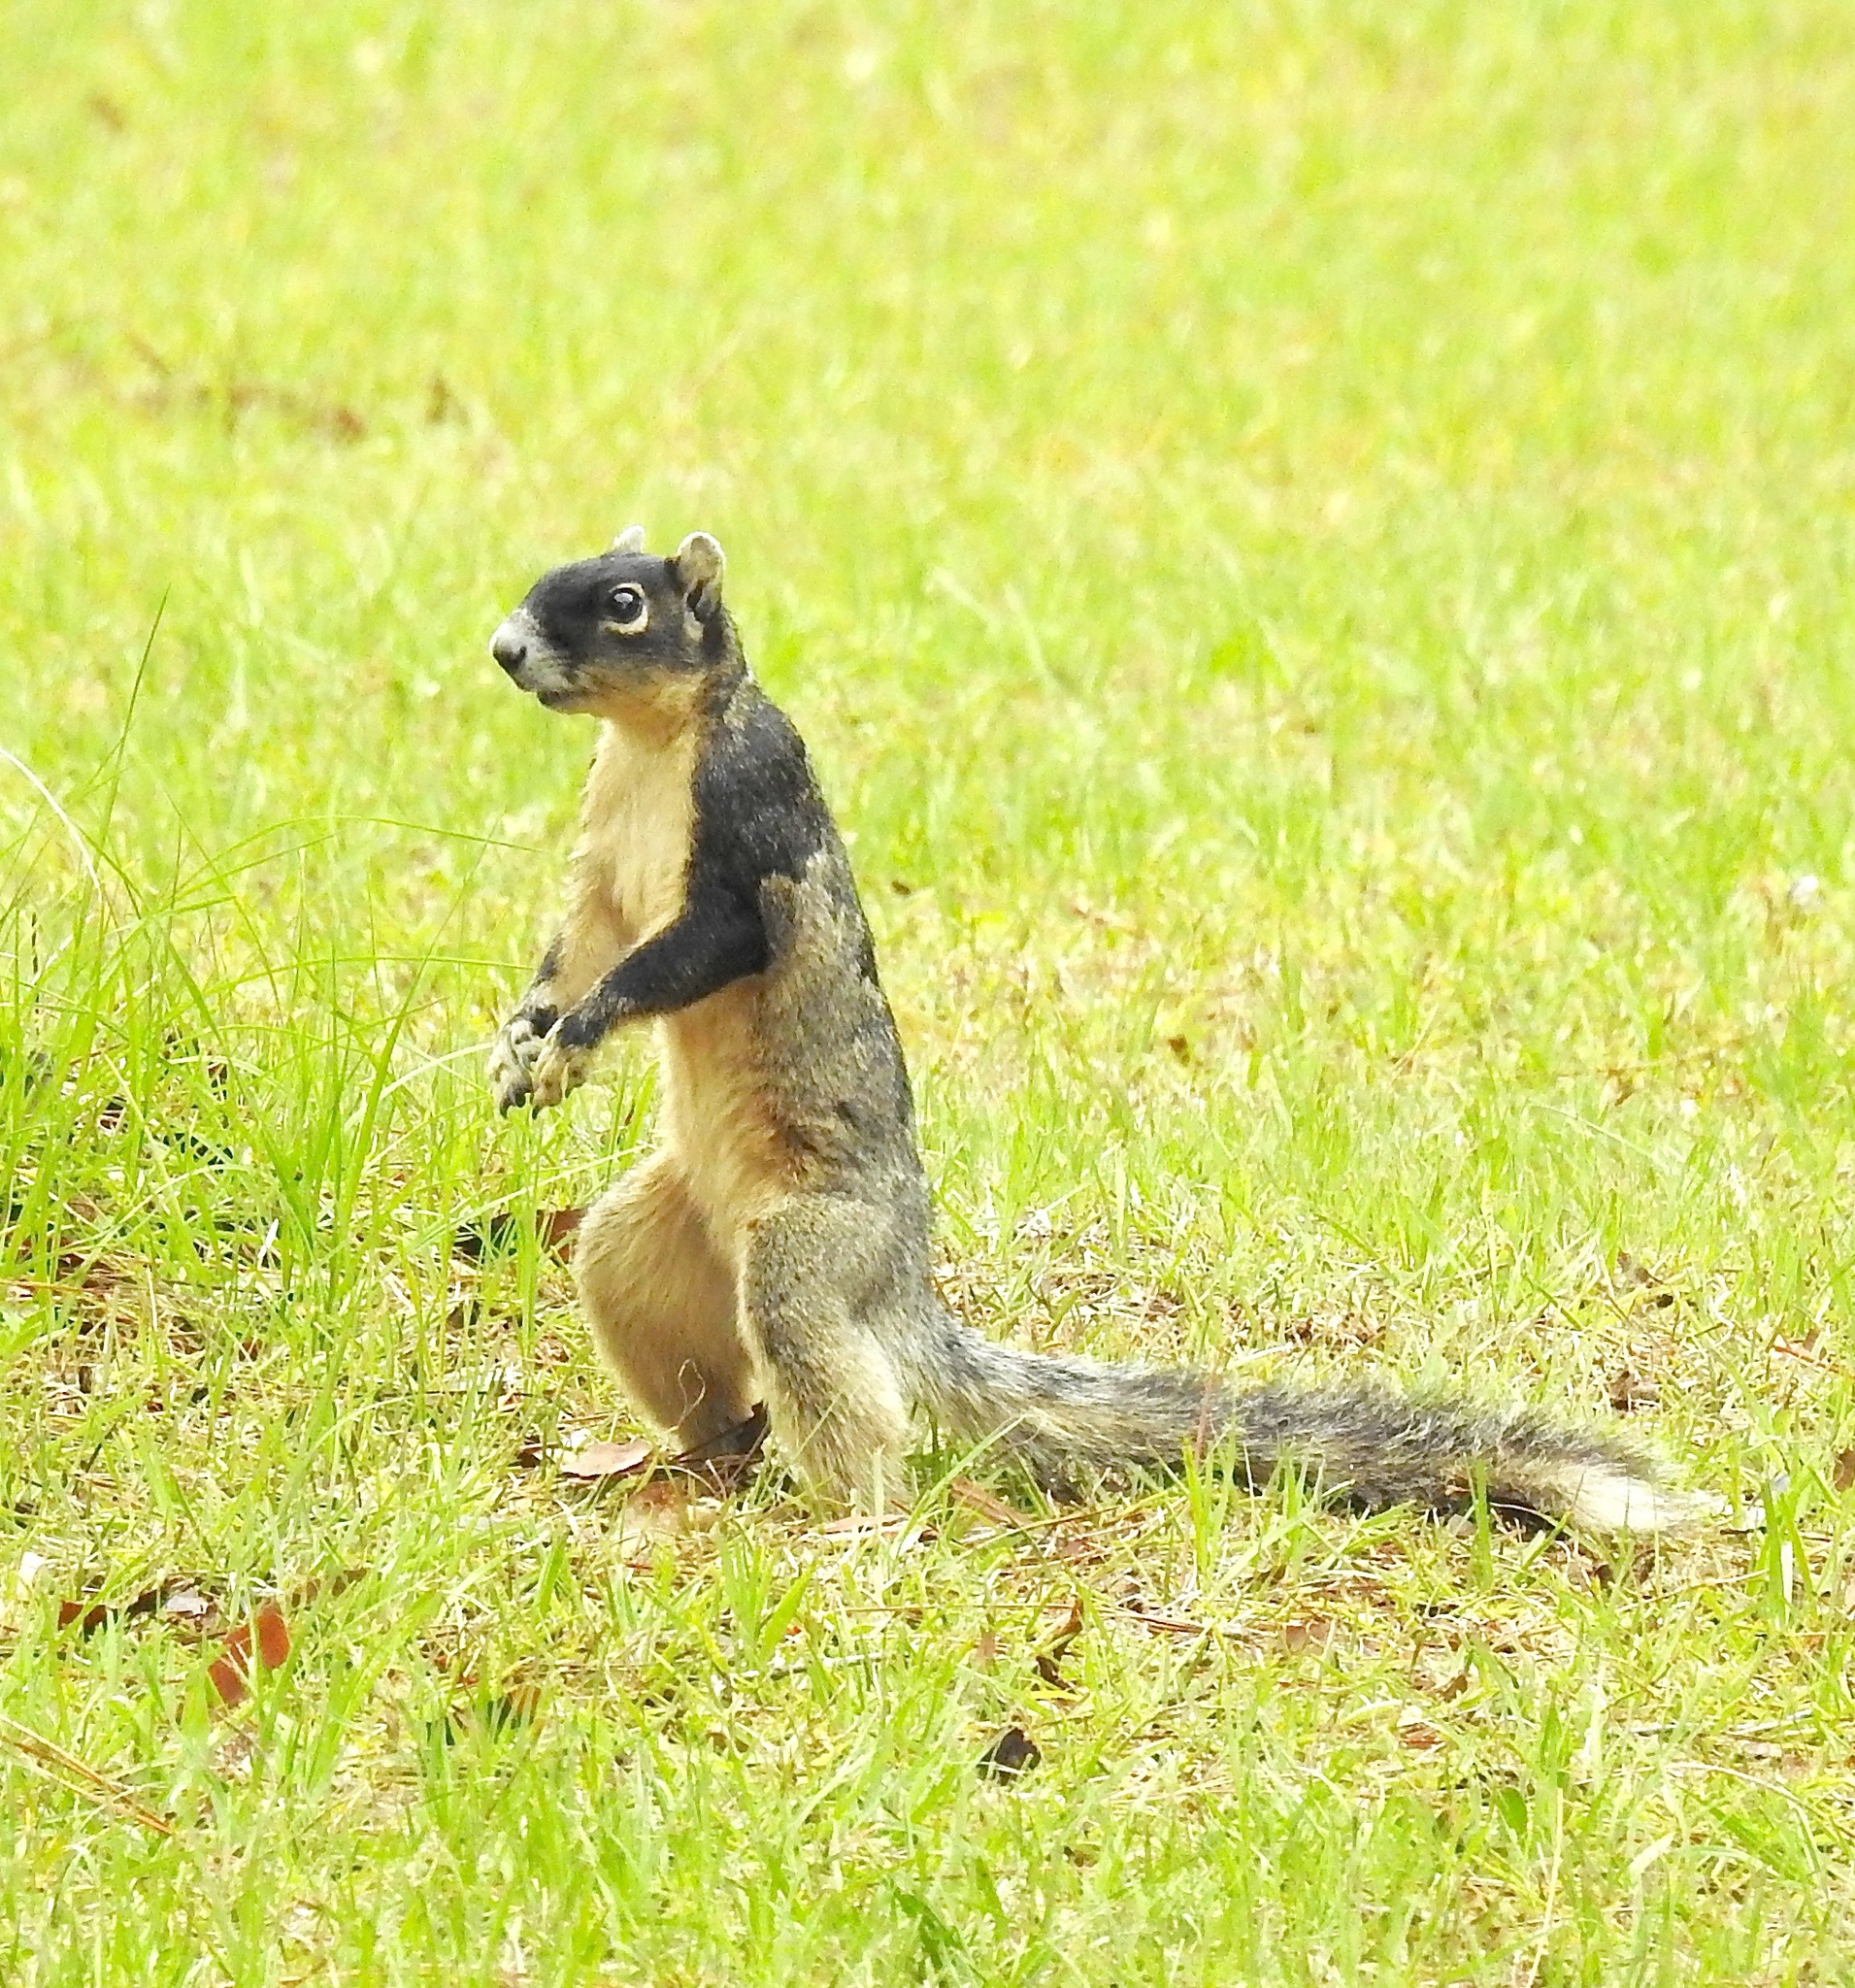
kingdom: Animalia
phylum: Chordata
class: Mammalia
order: Rodentia
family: Sciuridae
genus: Sciurus
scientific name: Sciurus niger
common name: Fox squirrel
